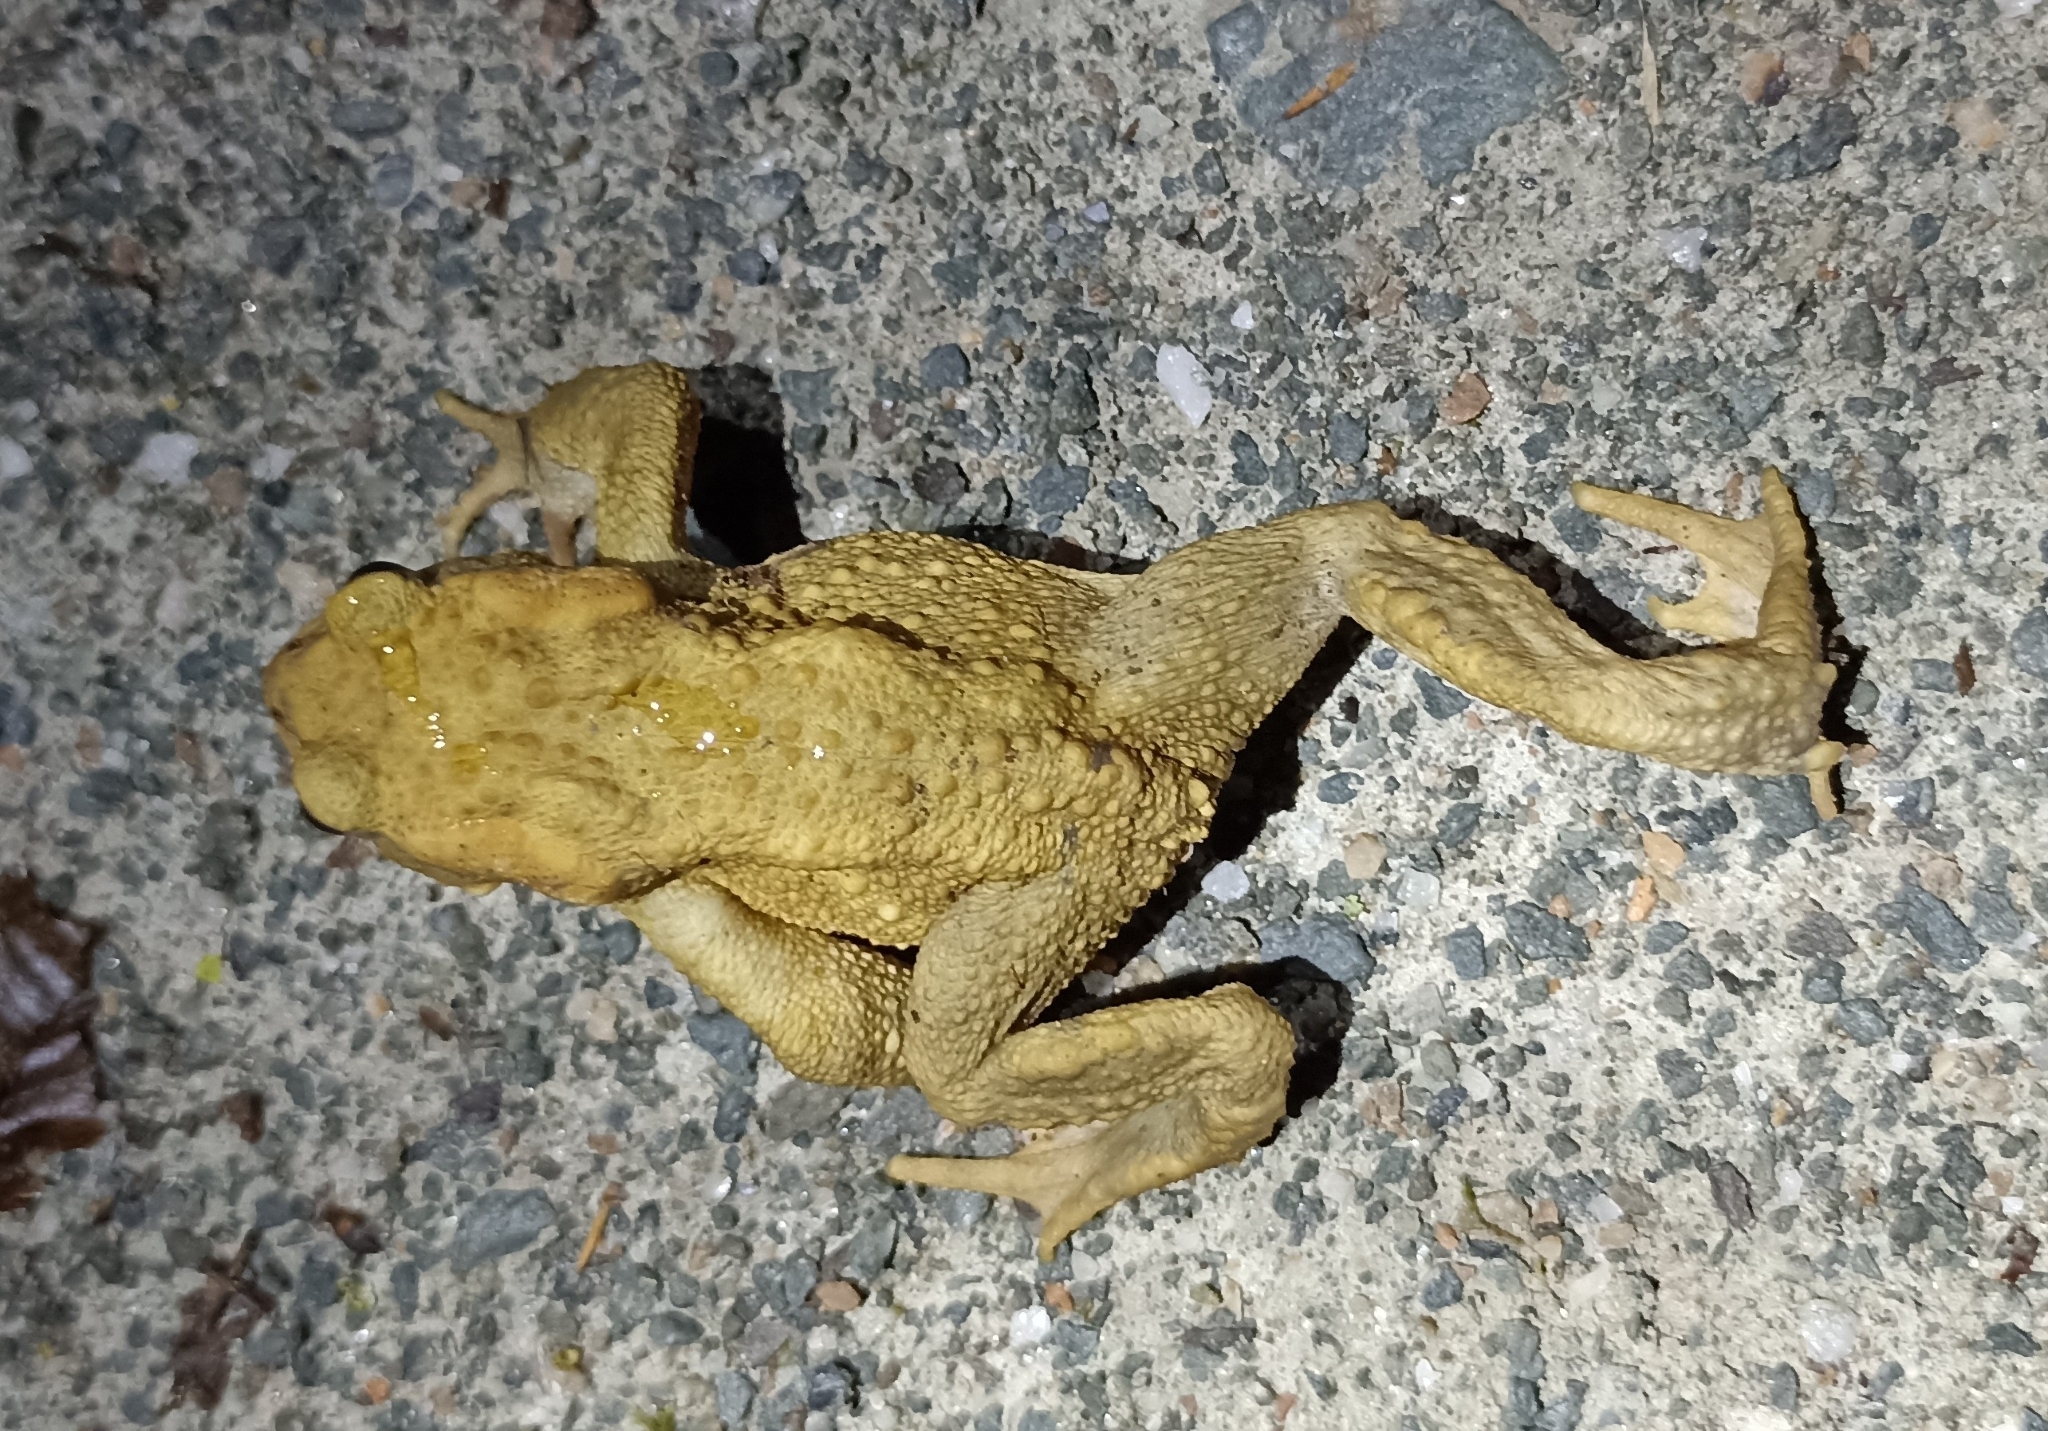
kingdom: Animalia
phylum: Chordata
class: Amphibia
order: Anura
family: Bufonidae
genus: Bufo
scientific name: Bufo spinosus
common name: Western common toad
